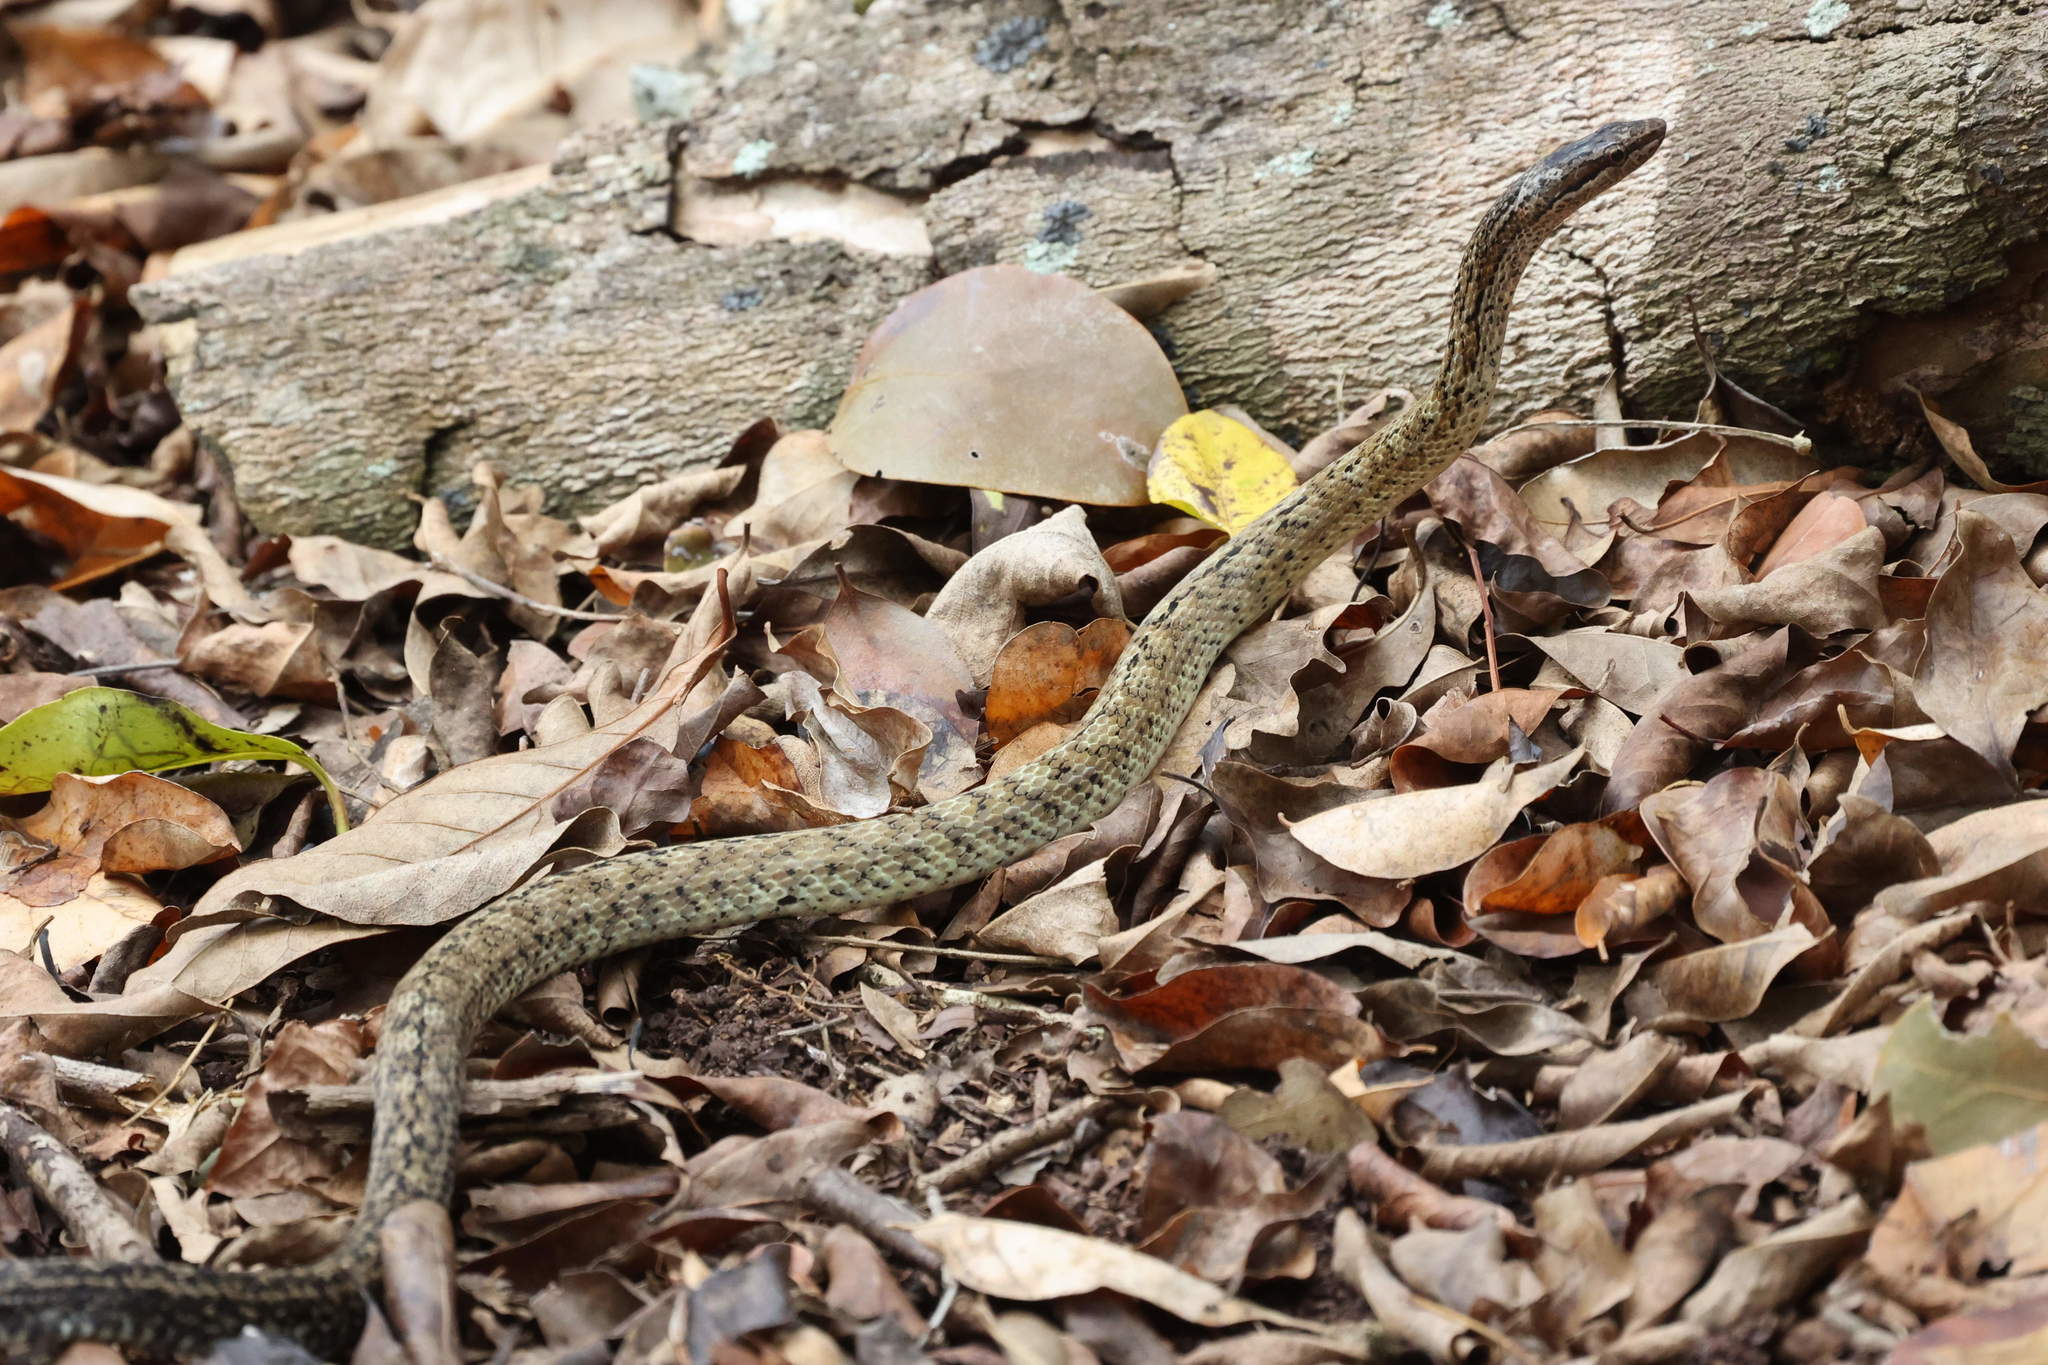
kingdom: Animalia
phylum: Chordata
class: Squamata
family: Colubridae
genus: Alsophis
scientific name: Alsophis danforthi
